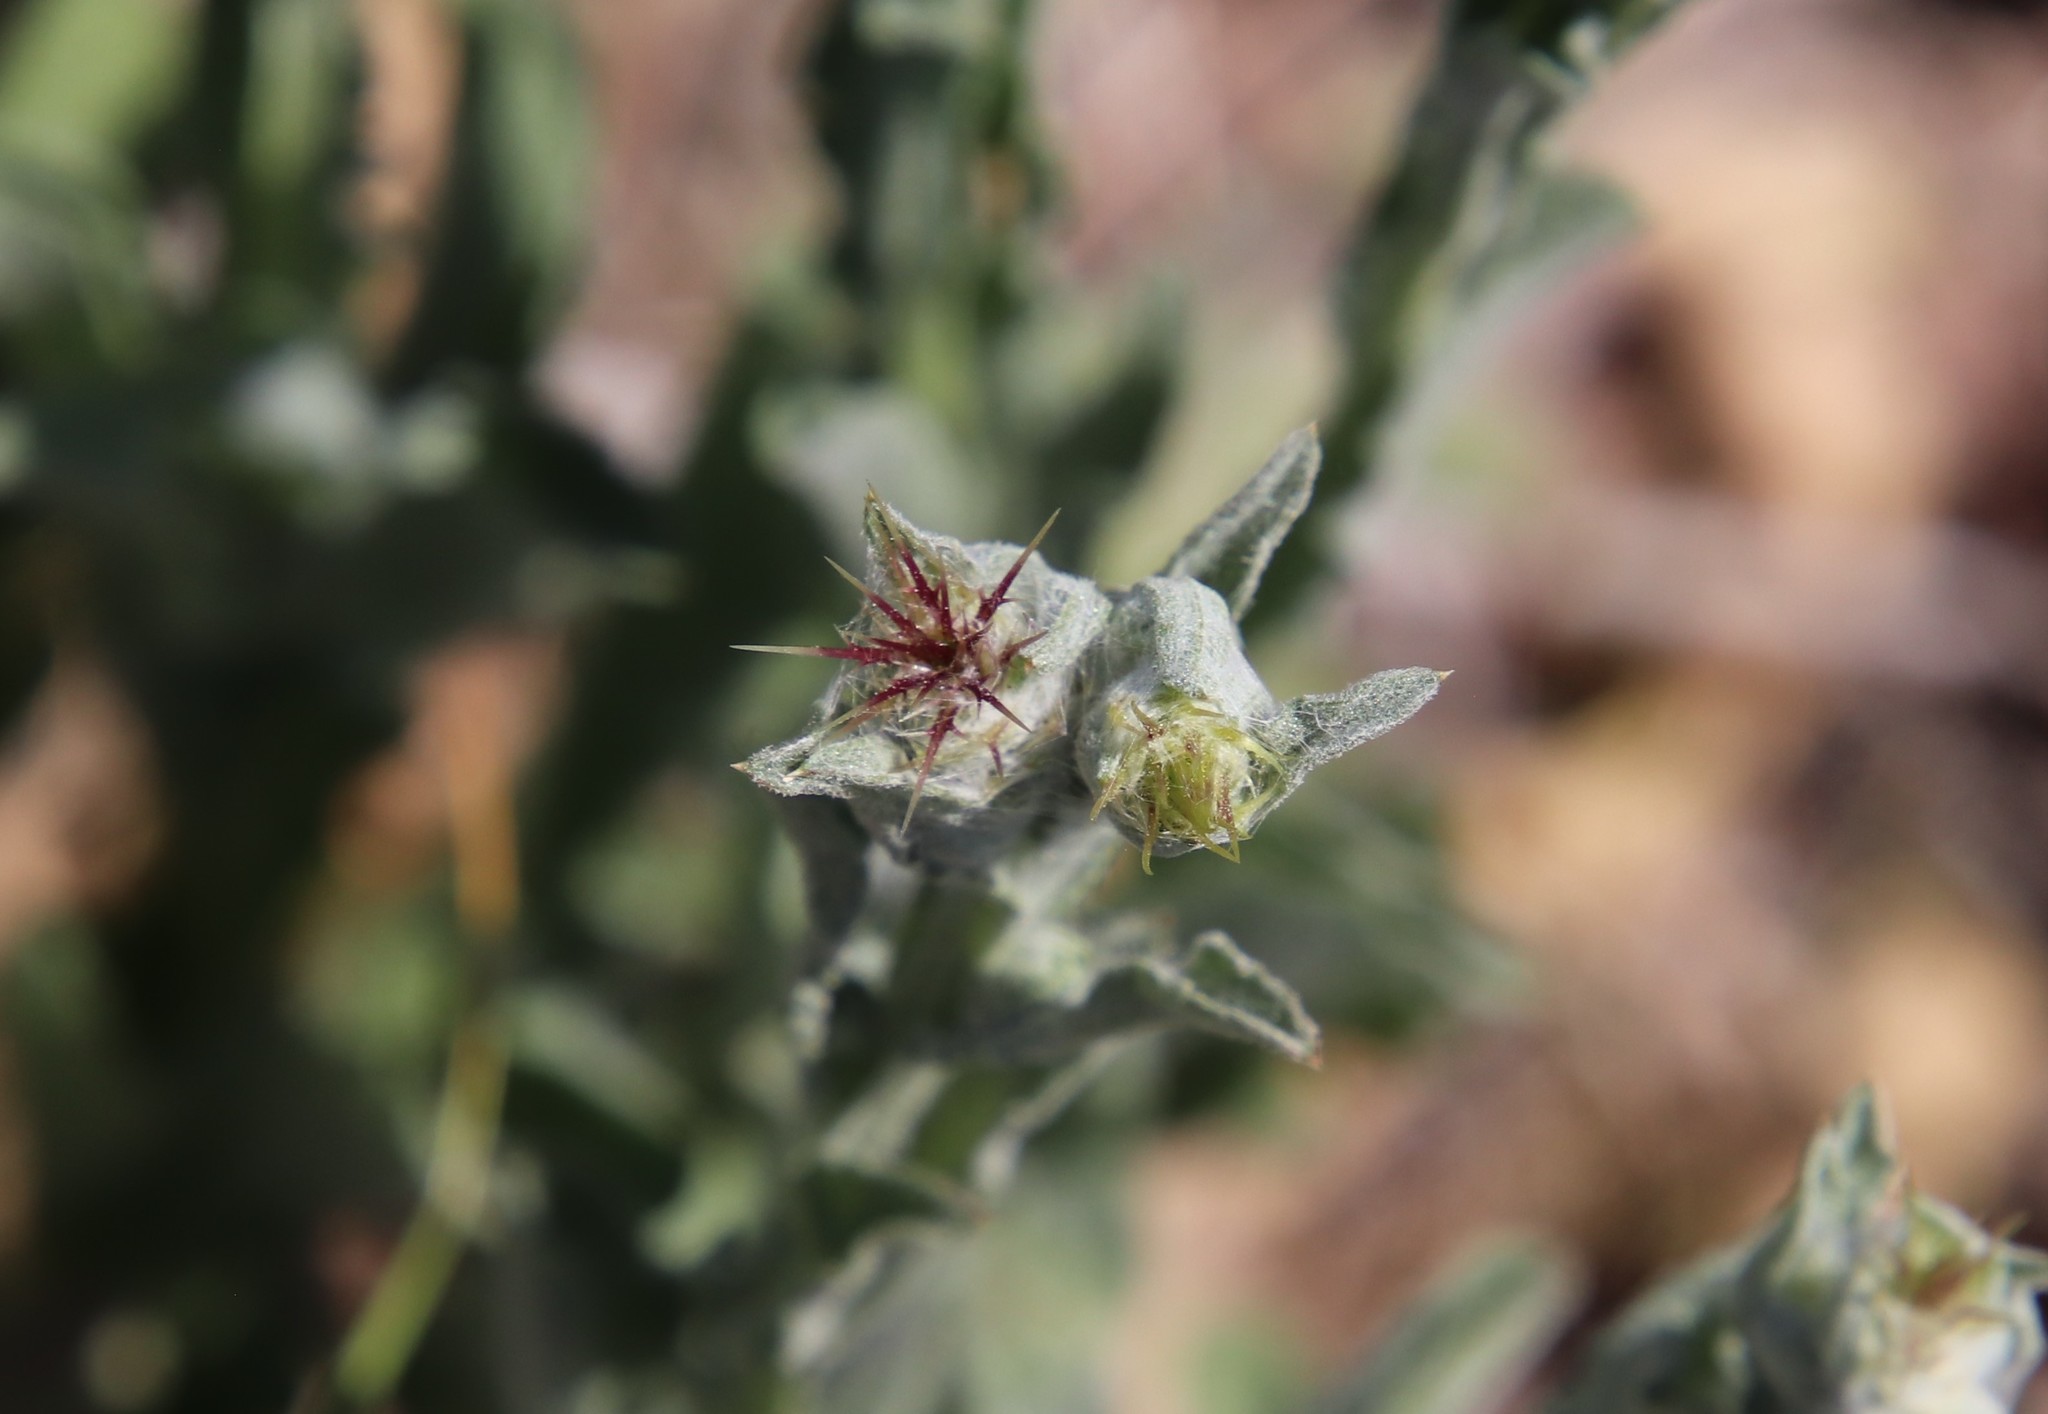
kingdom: Plantae
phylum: Tracheophyta
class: Magnoliopsida
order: Asterales
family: Asteraceae
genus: Centaurea
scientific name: Centaurea melitensis
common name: Maltese star-thistle
